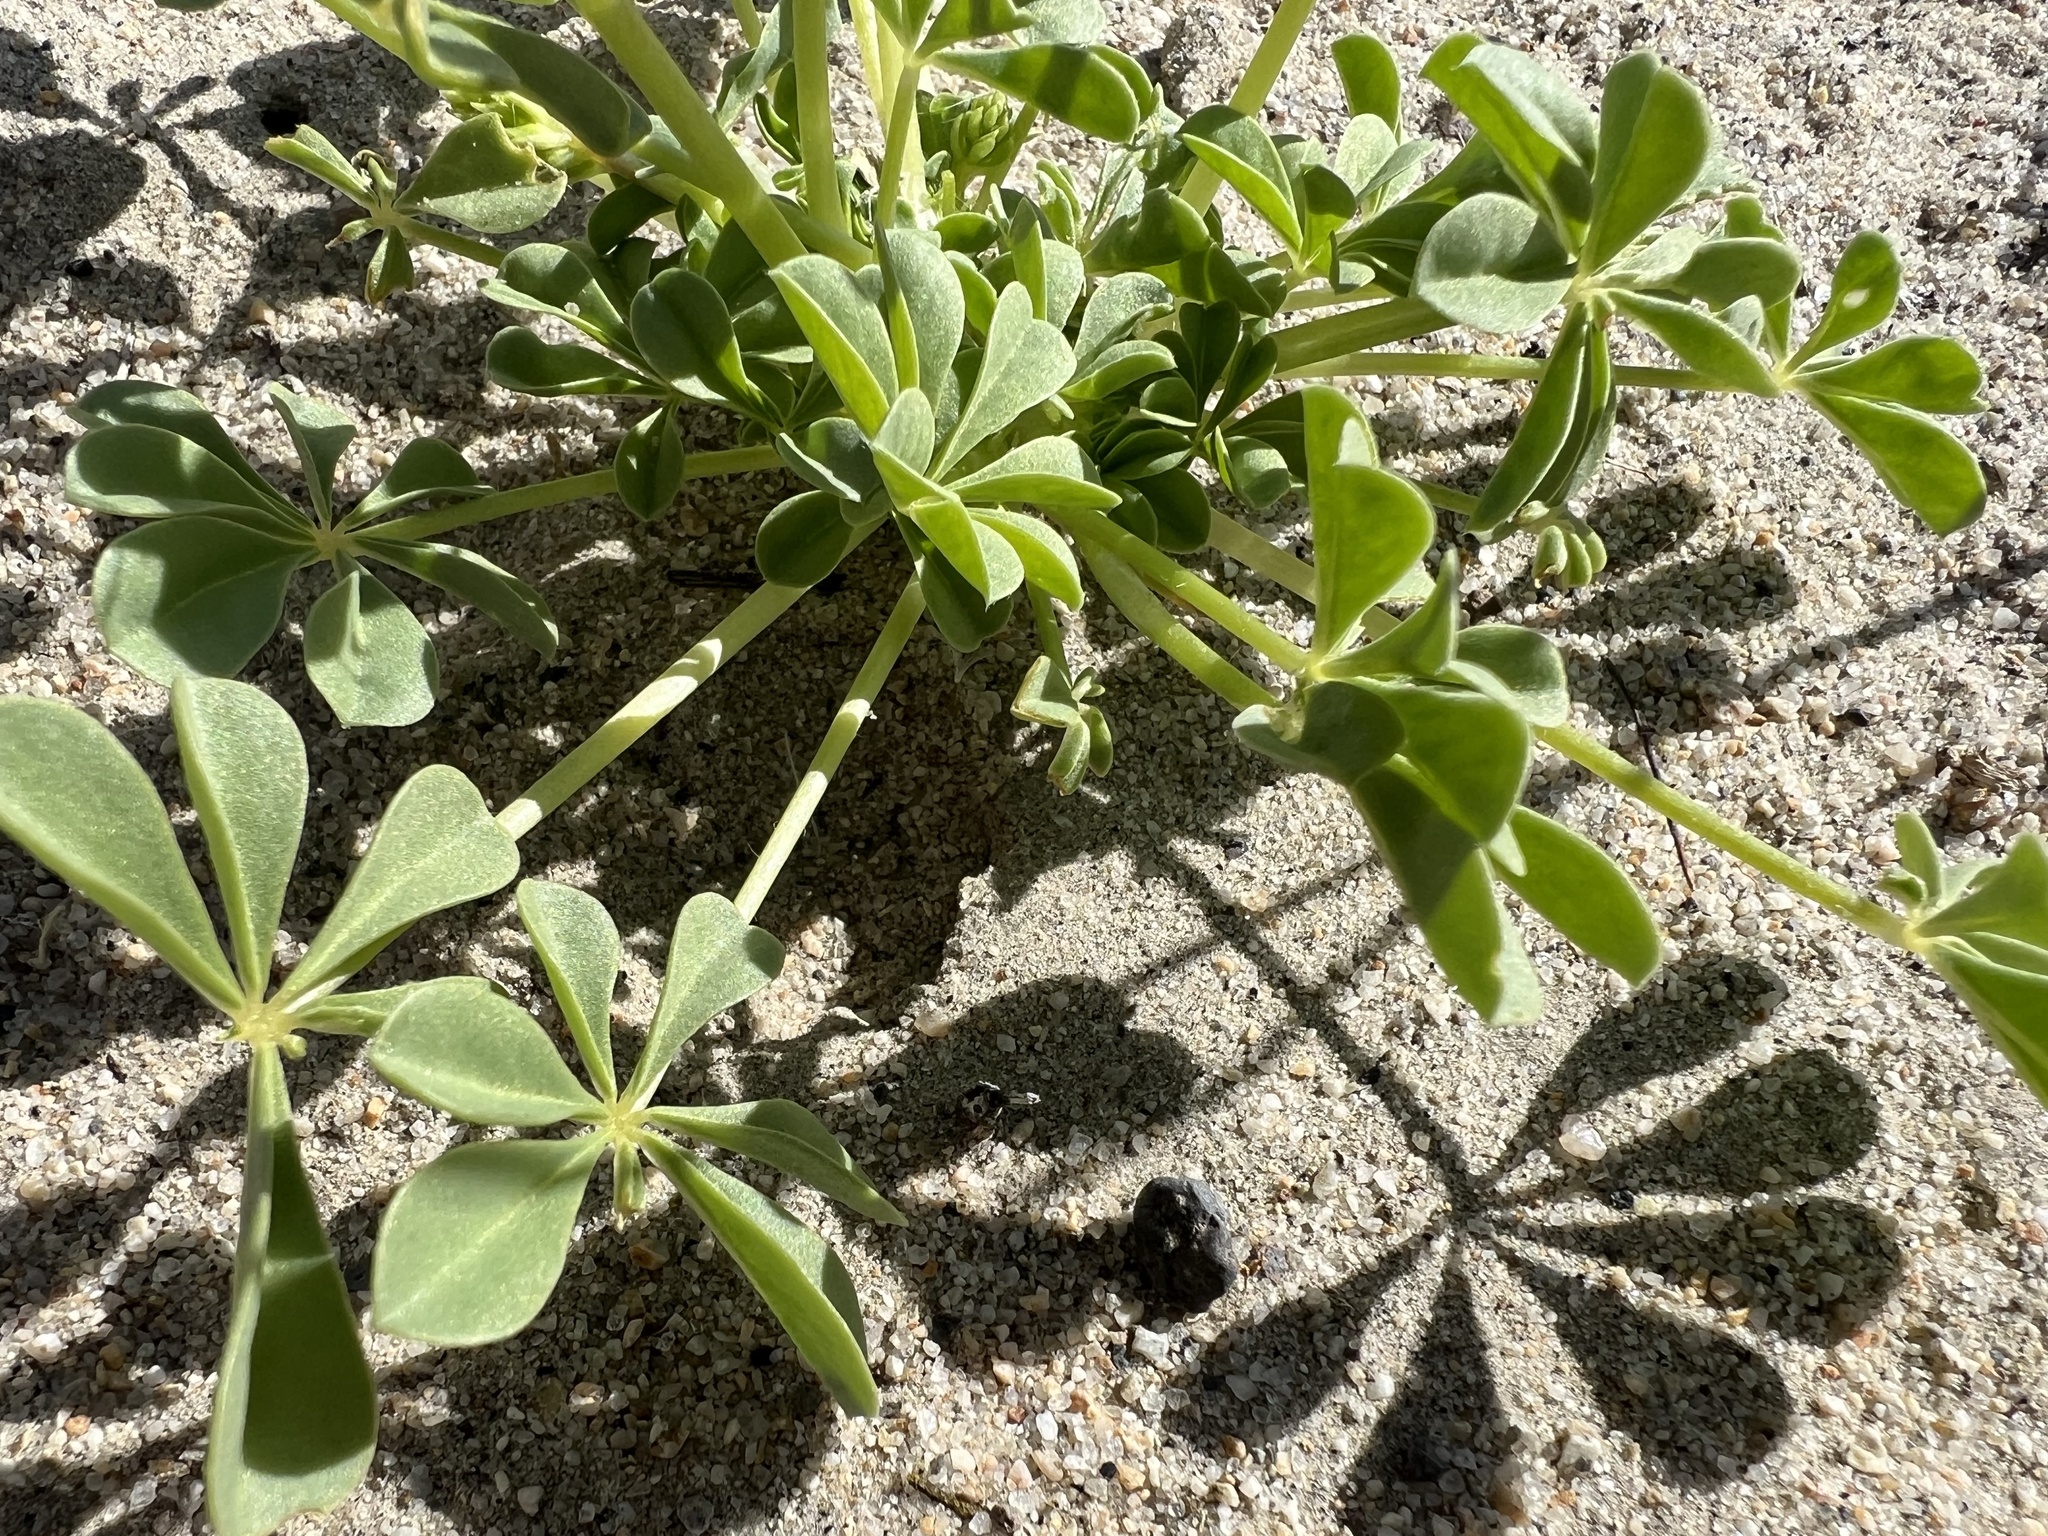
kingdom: Plantae
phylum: Tracheophyta
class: Magnoliopsida
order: Fabales
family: Fabaceae
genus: Lupinus
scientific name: Lupinus
